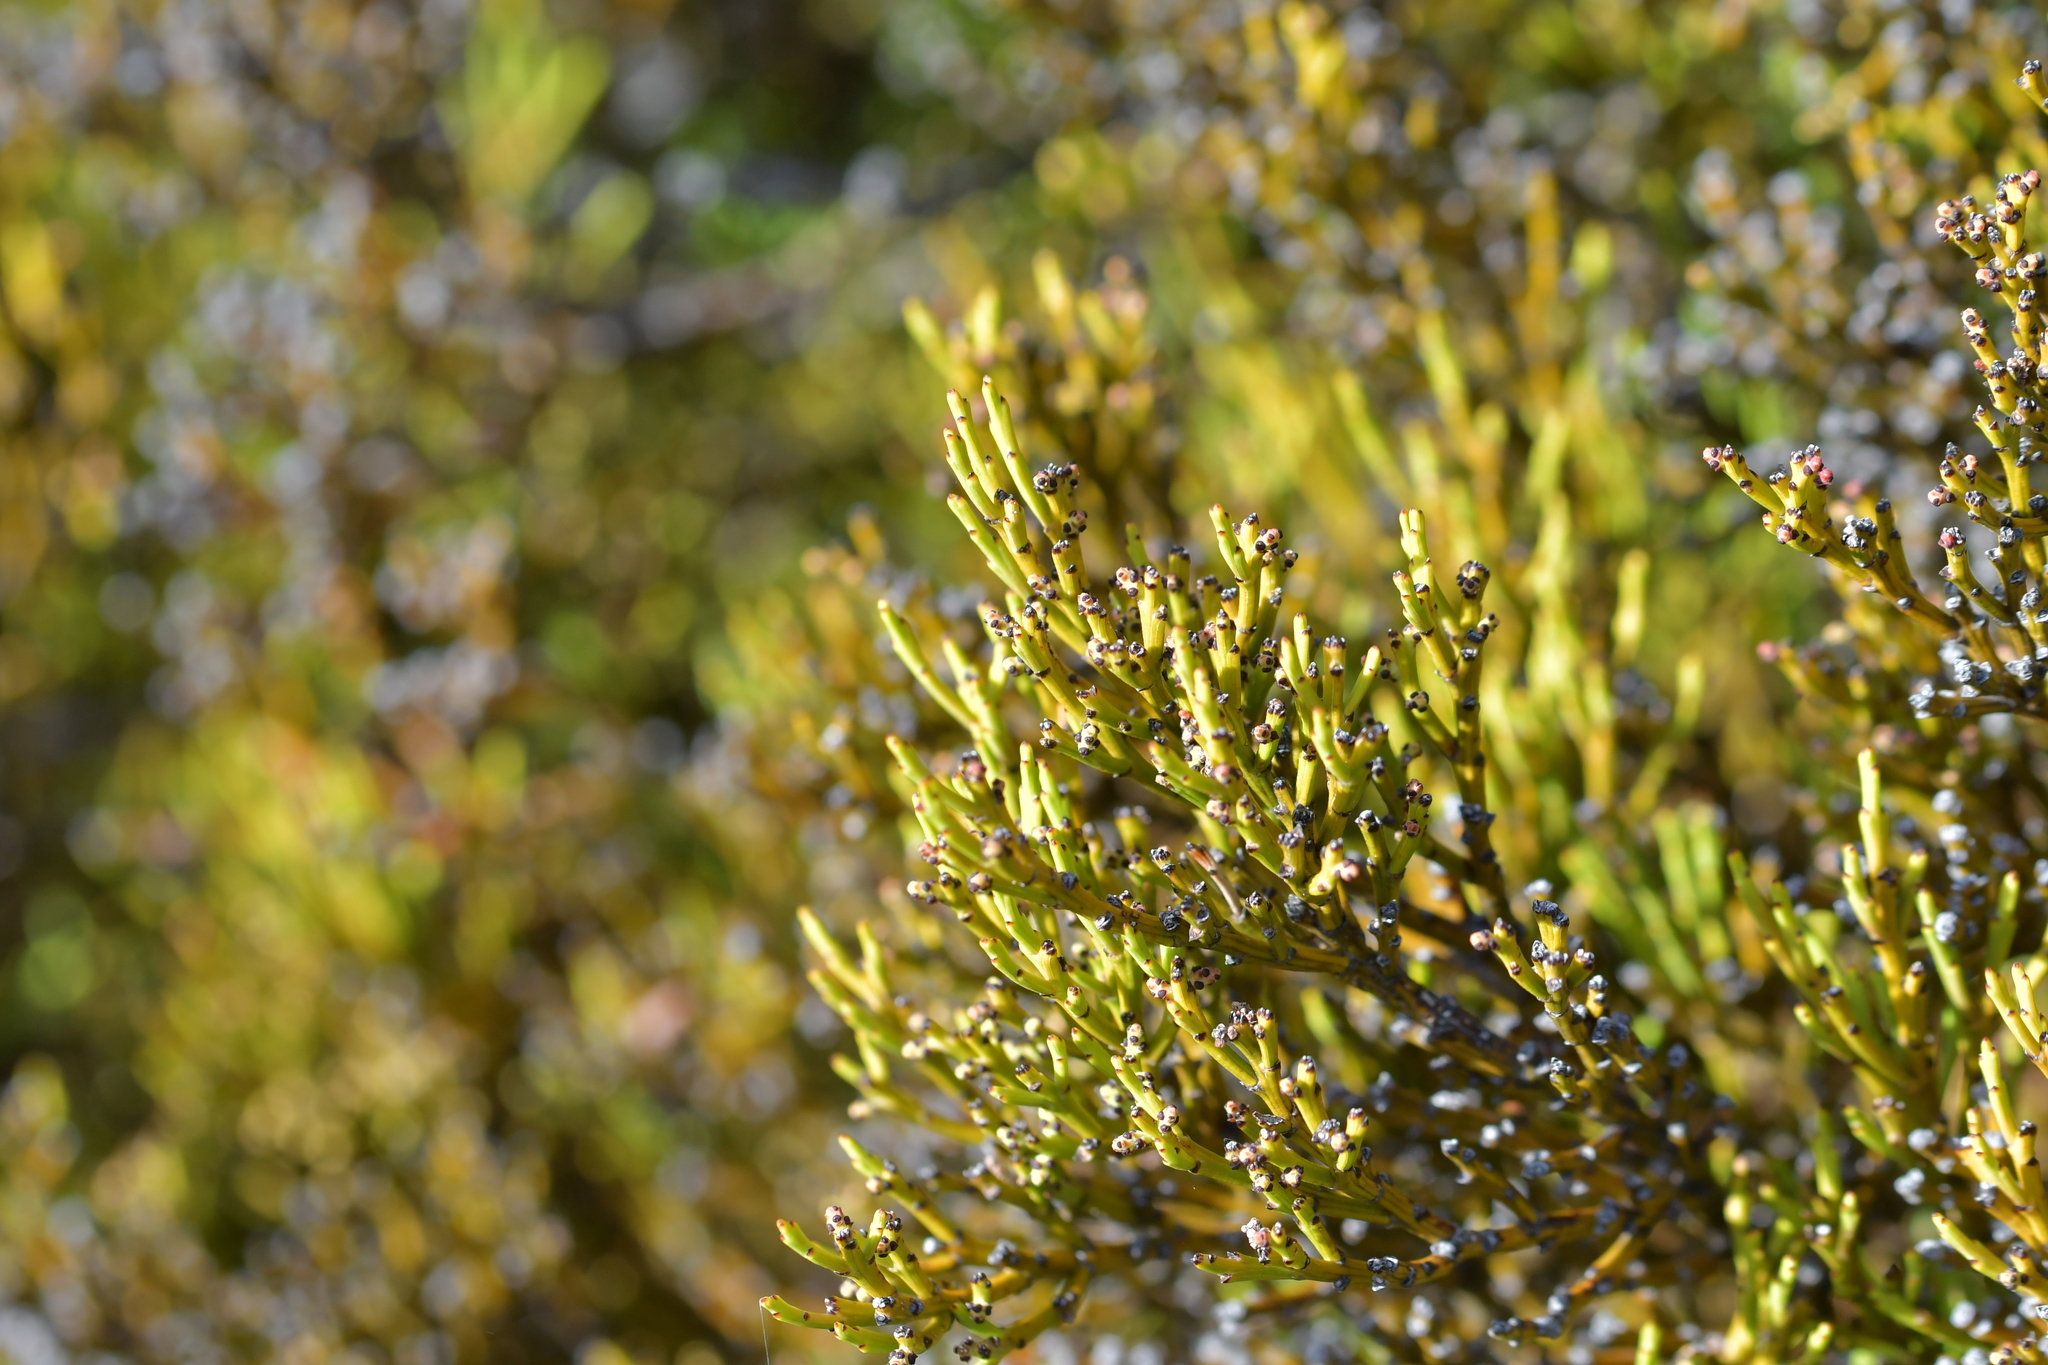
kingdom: Plantae
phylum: Tracheophyta
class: Magnoliopsida
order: Santalales
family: Santalaceae
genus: Exocarpos
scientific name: Exocarpos bidwillii
